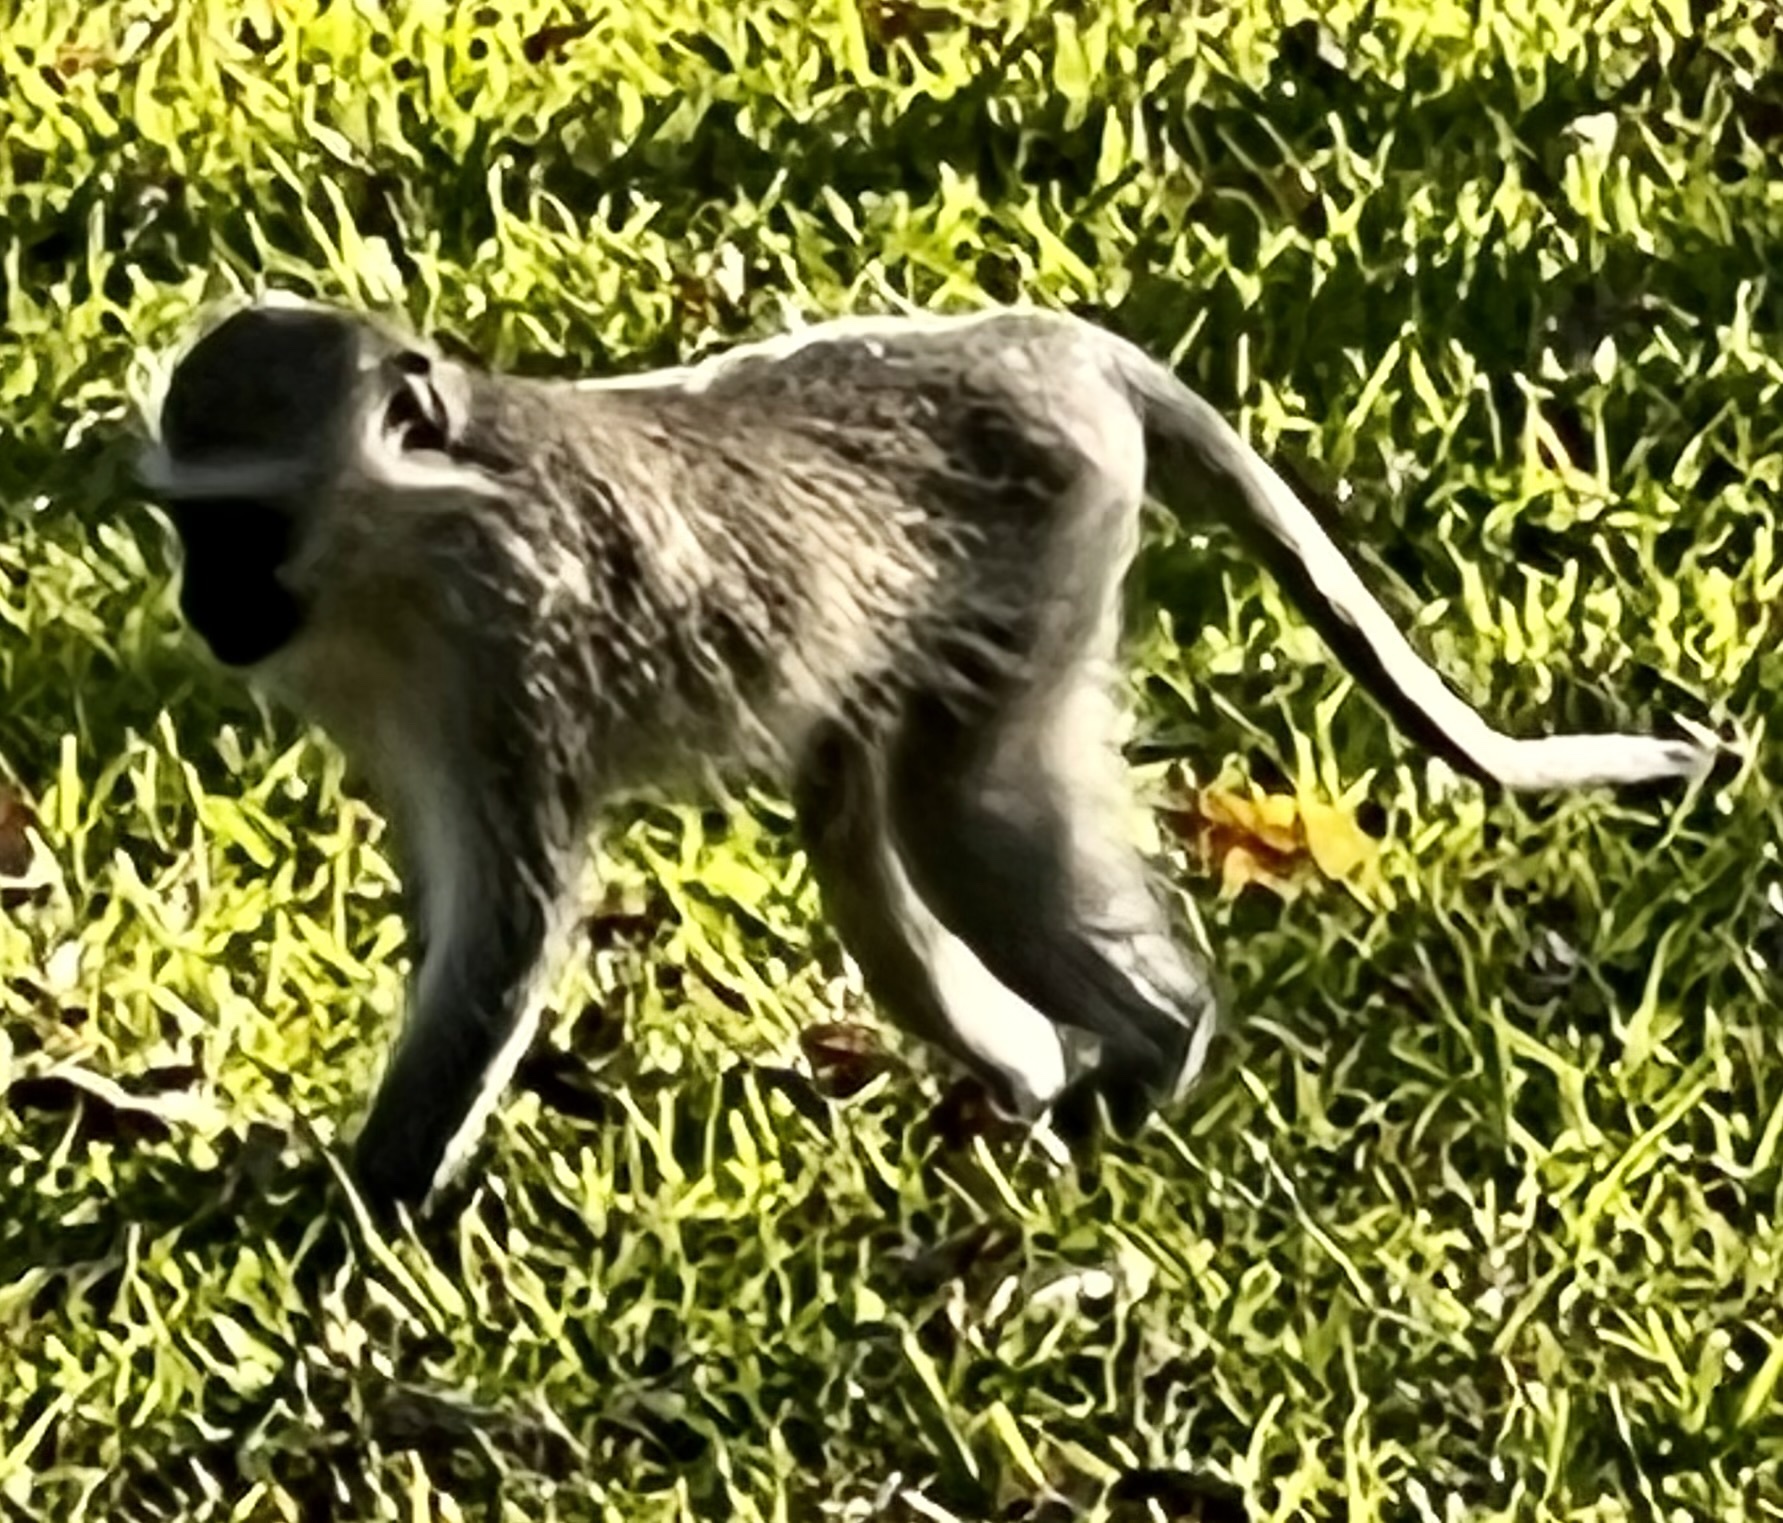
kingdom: Animalia
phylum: Chordata
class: Mammalia
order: Primates
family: Cercopithecidae
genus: Chlorocebus
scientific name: Chlorocebus pygerythrus
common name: Vervet monkey
